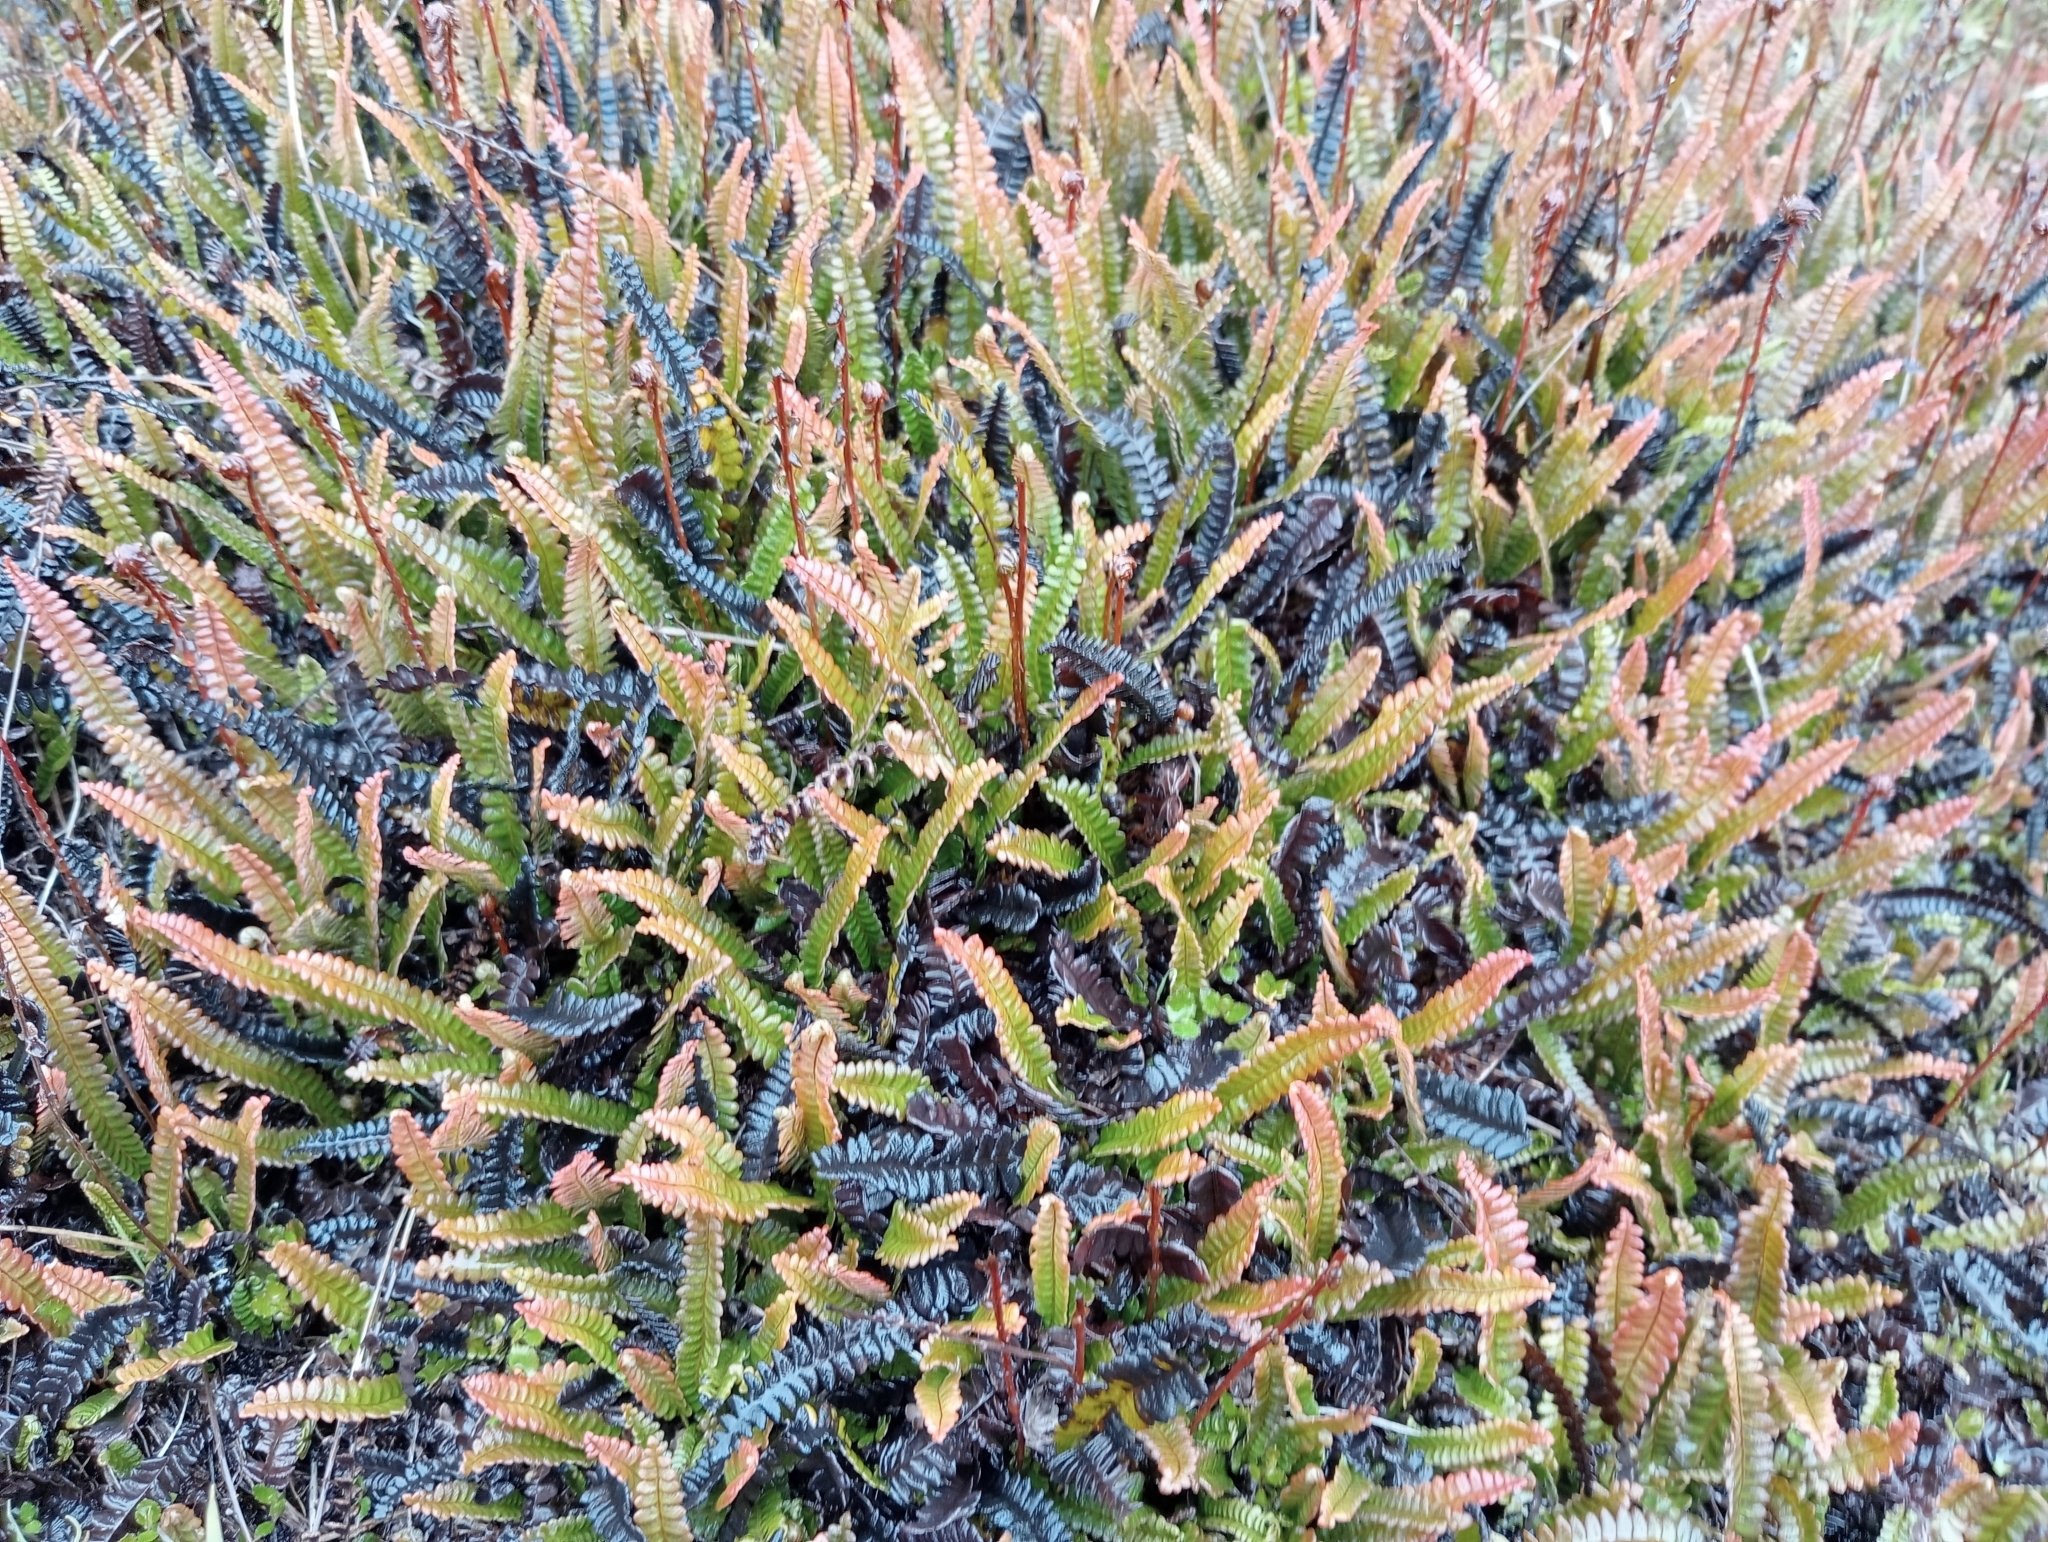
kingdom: Plantae
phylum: Tracheophyta
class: Polypodiopsida
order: Polypodiales
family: Blechnaceae
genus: Austroblechnum
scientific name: Austroblechnum penna-marina
